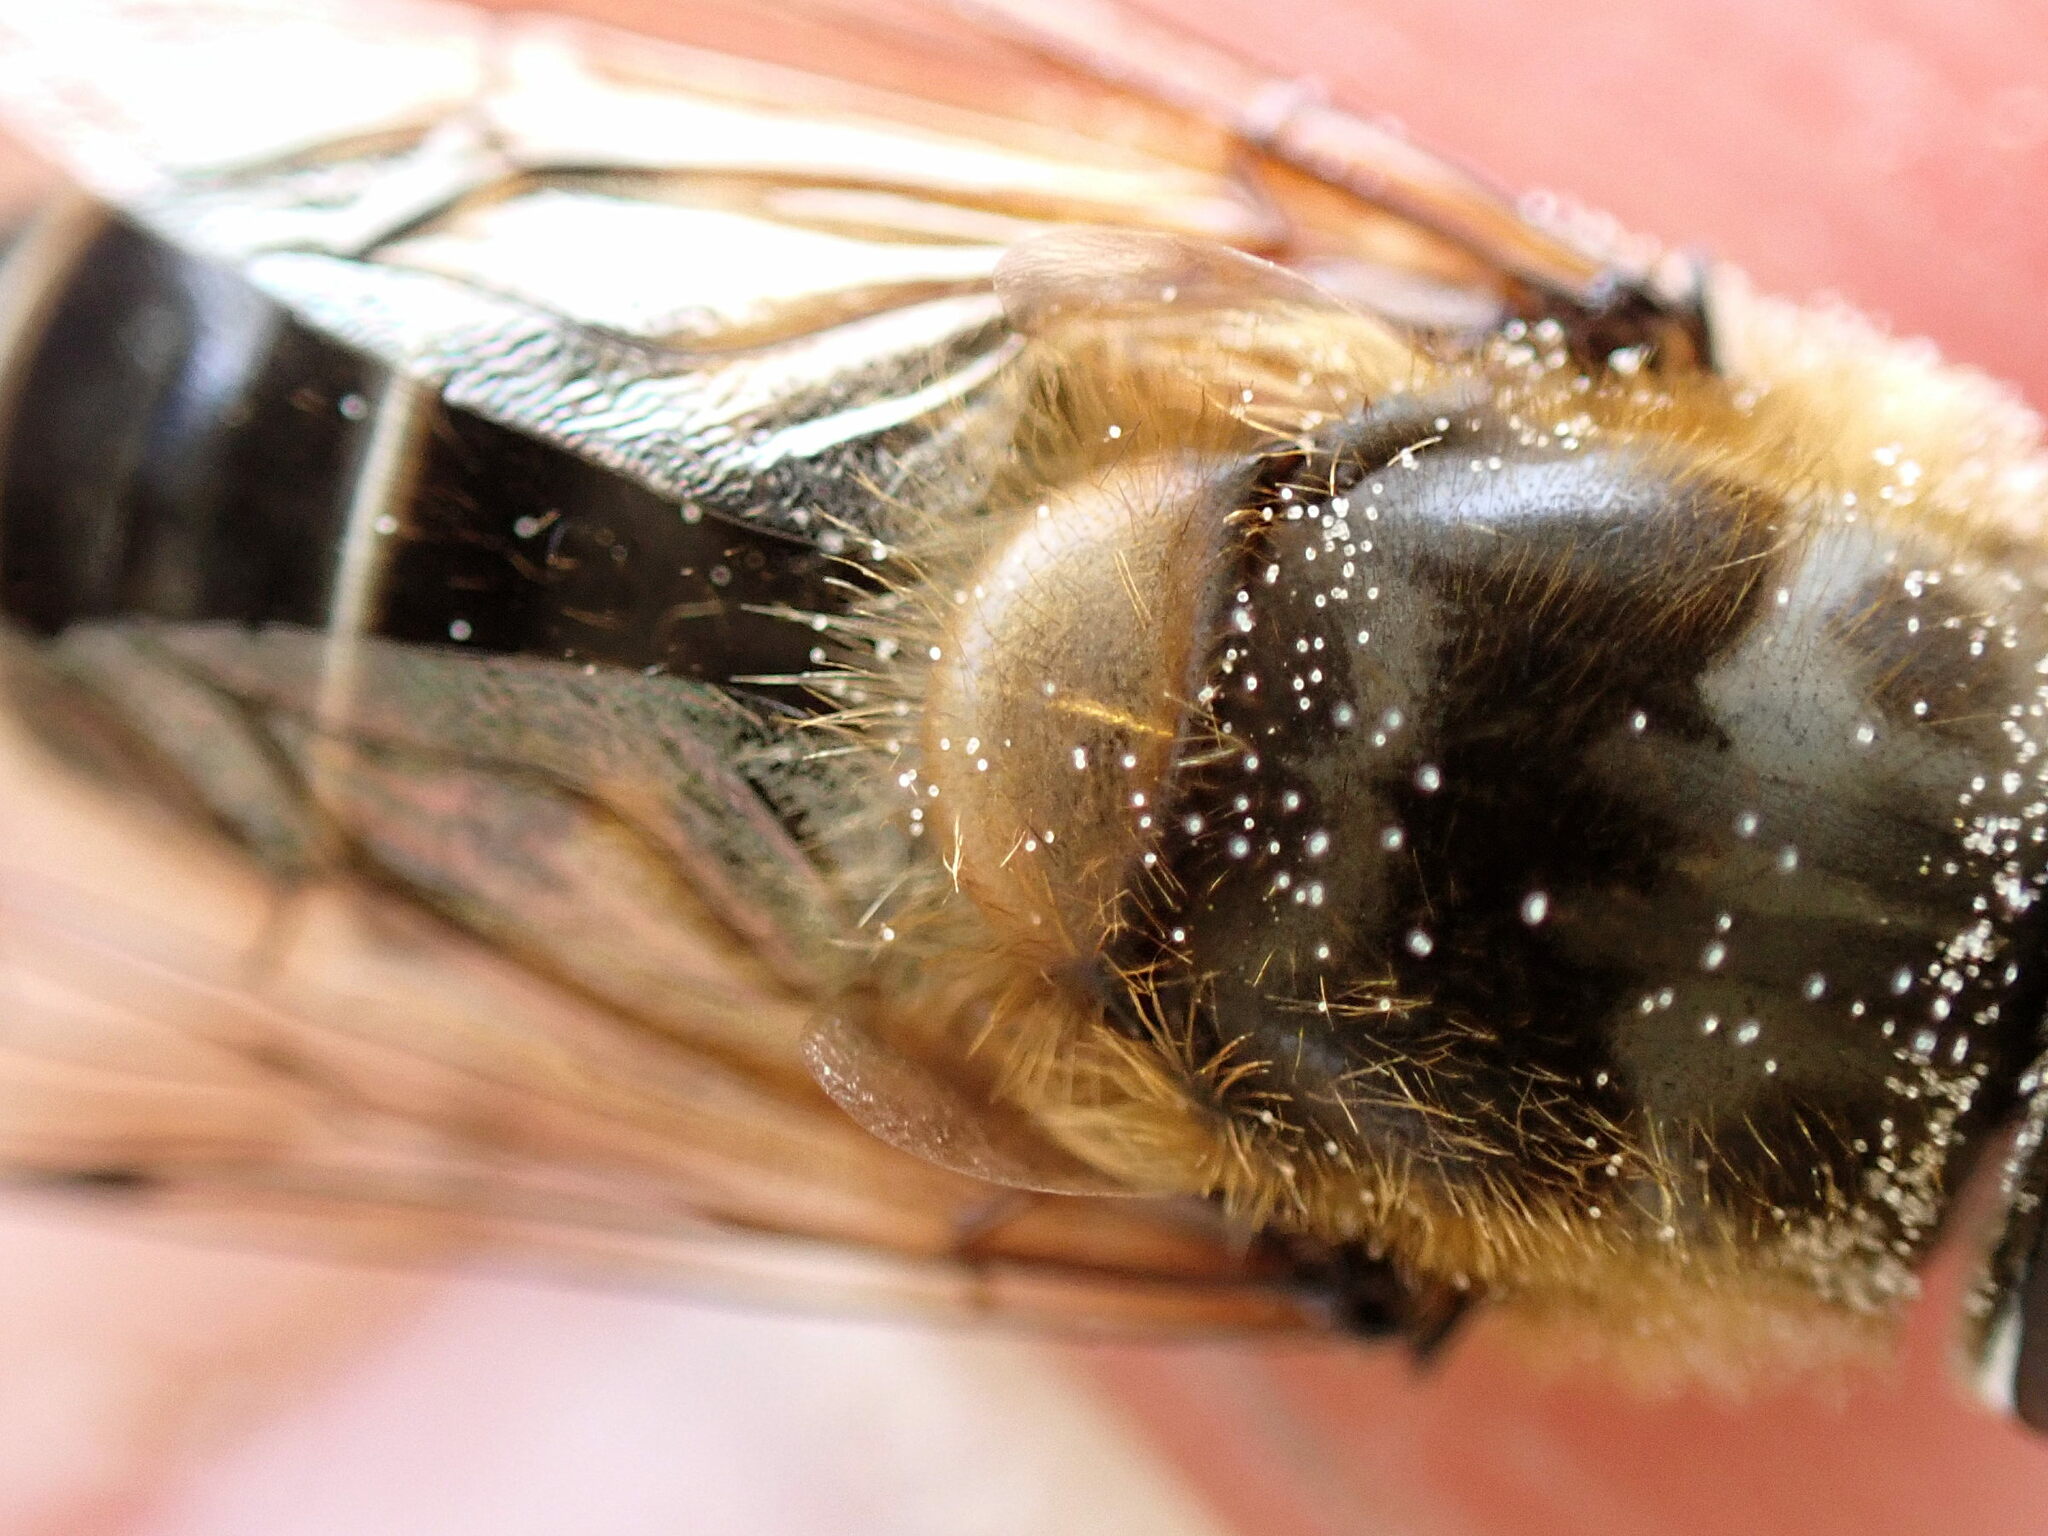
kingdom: Animalia
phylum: Arthropoda
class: Insecta
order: Diptera
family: Syrphidae
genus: Eristalis
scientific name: Eristalis pertinax
